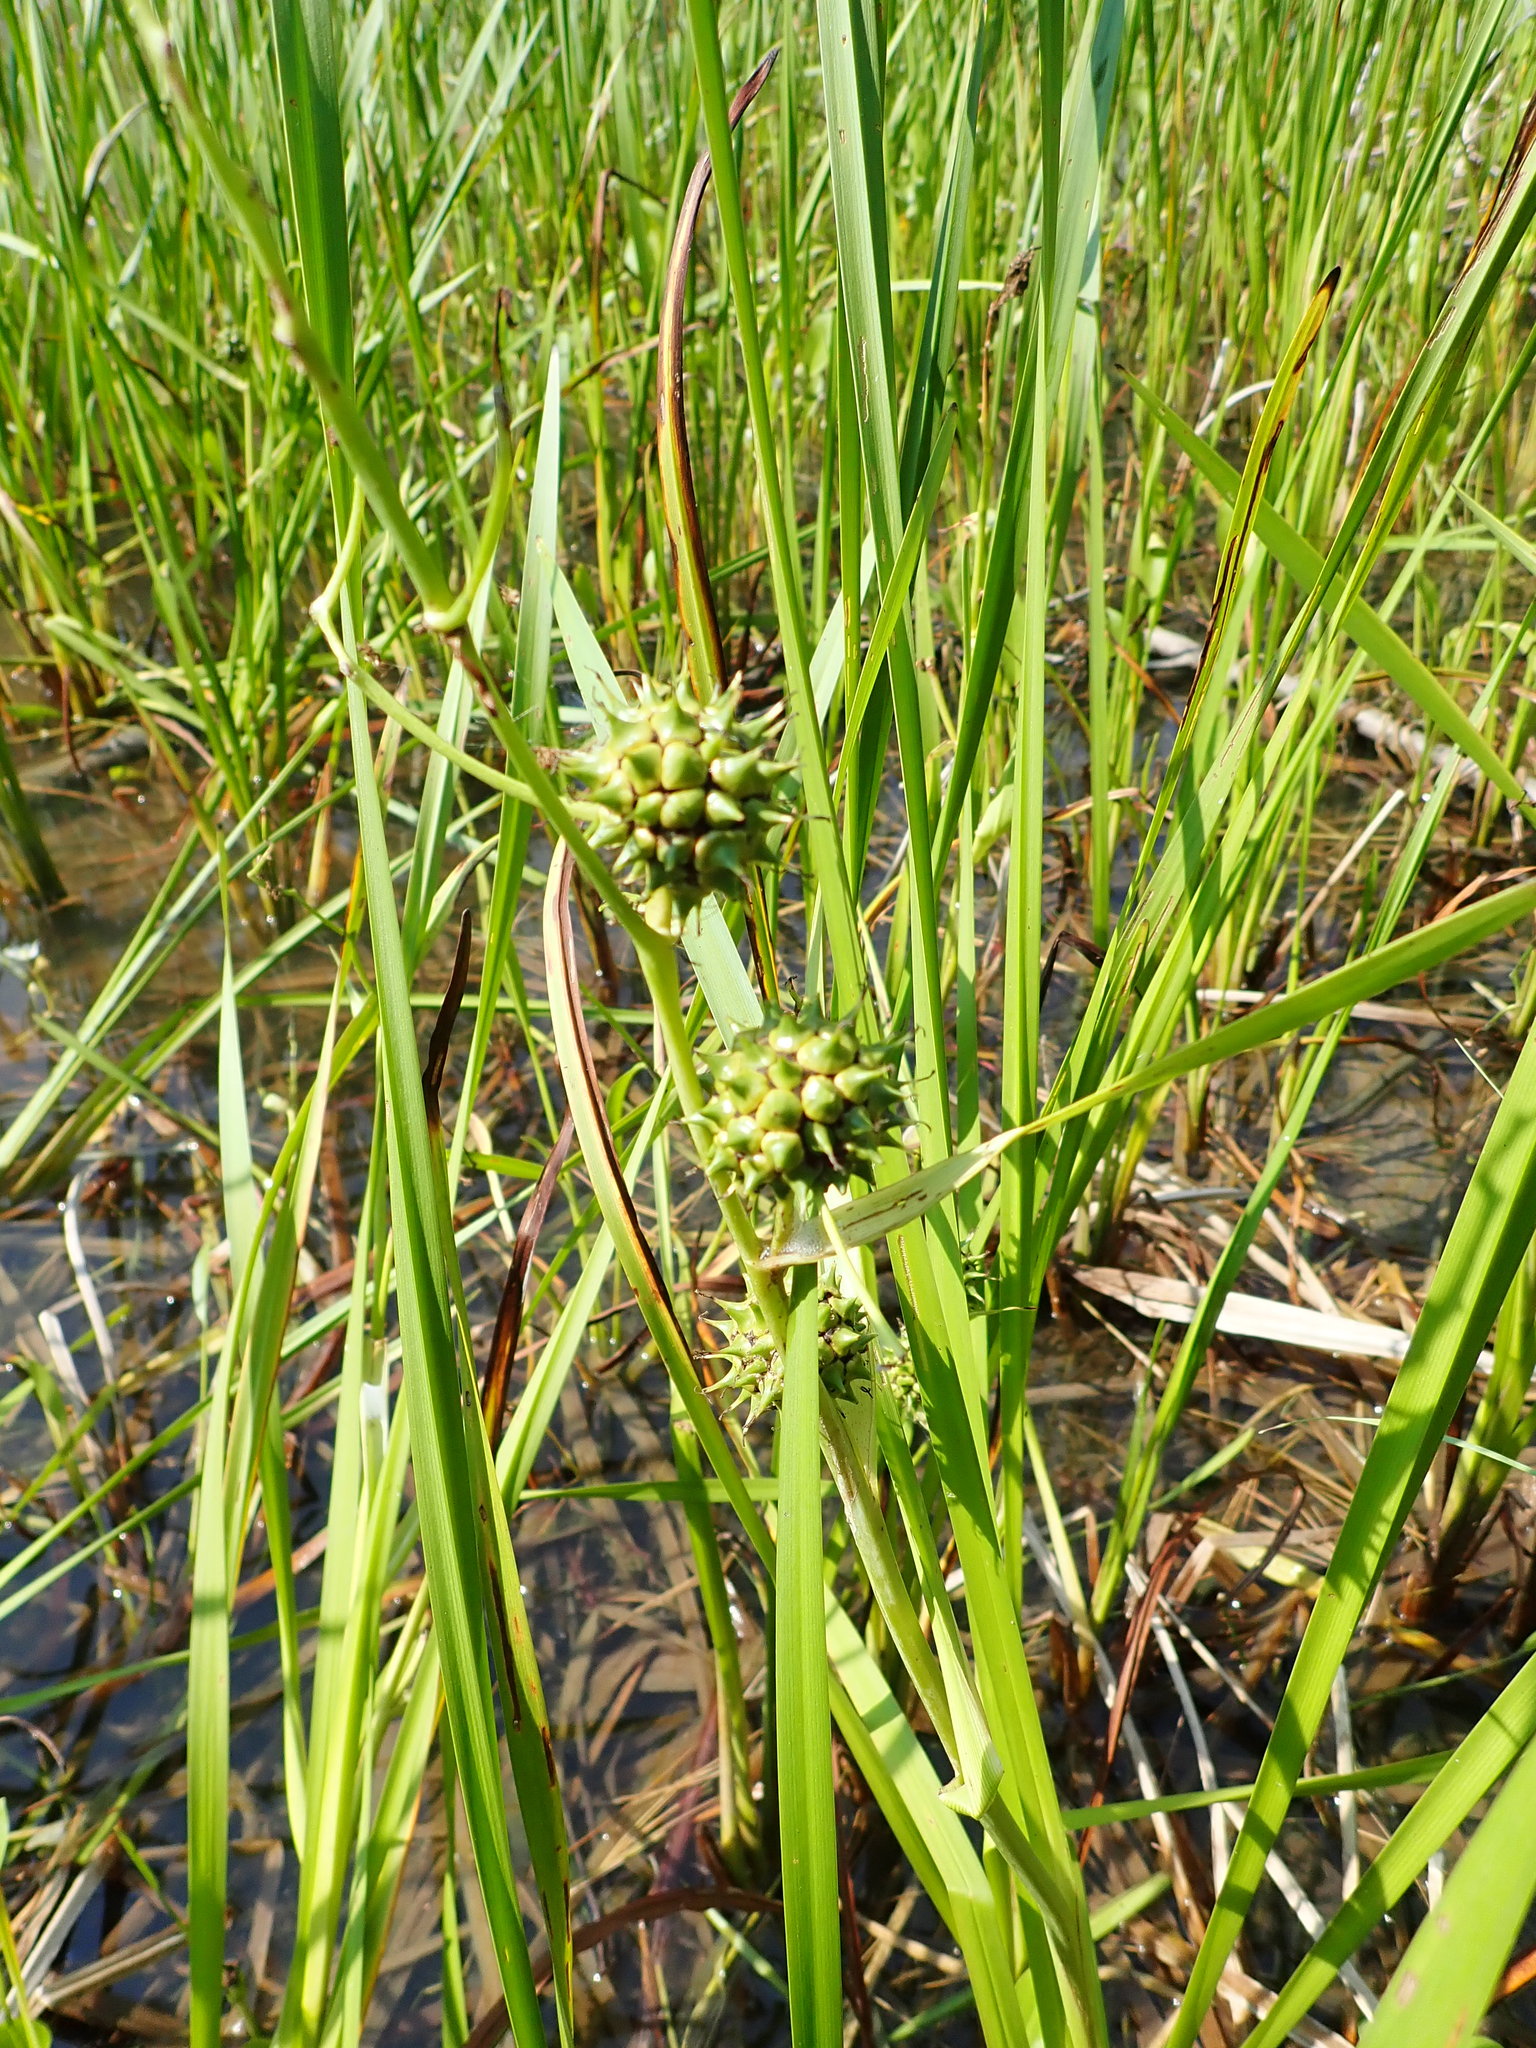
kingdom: Plantae
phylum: Tracheophyta
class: Liliopsida
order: Poales
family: Typhaceae
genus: Sparganium
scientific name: Sparganium eurycarpum
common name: Broad-fruited burreed
